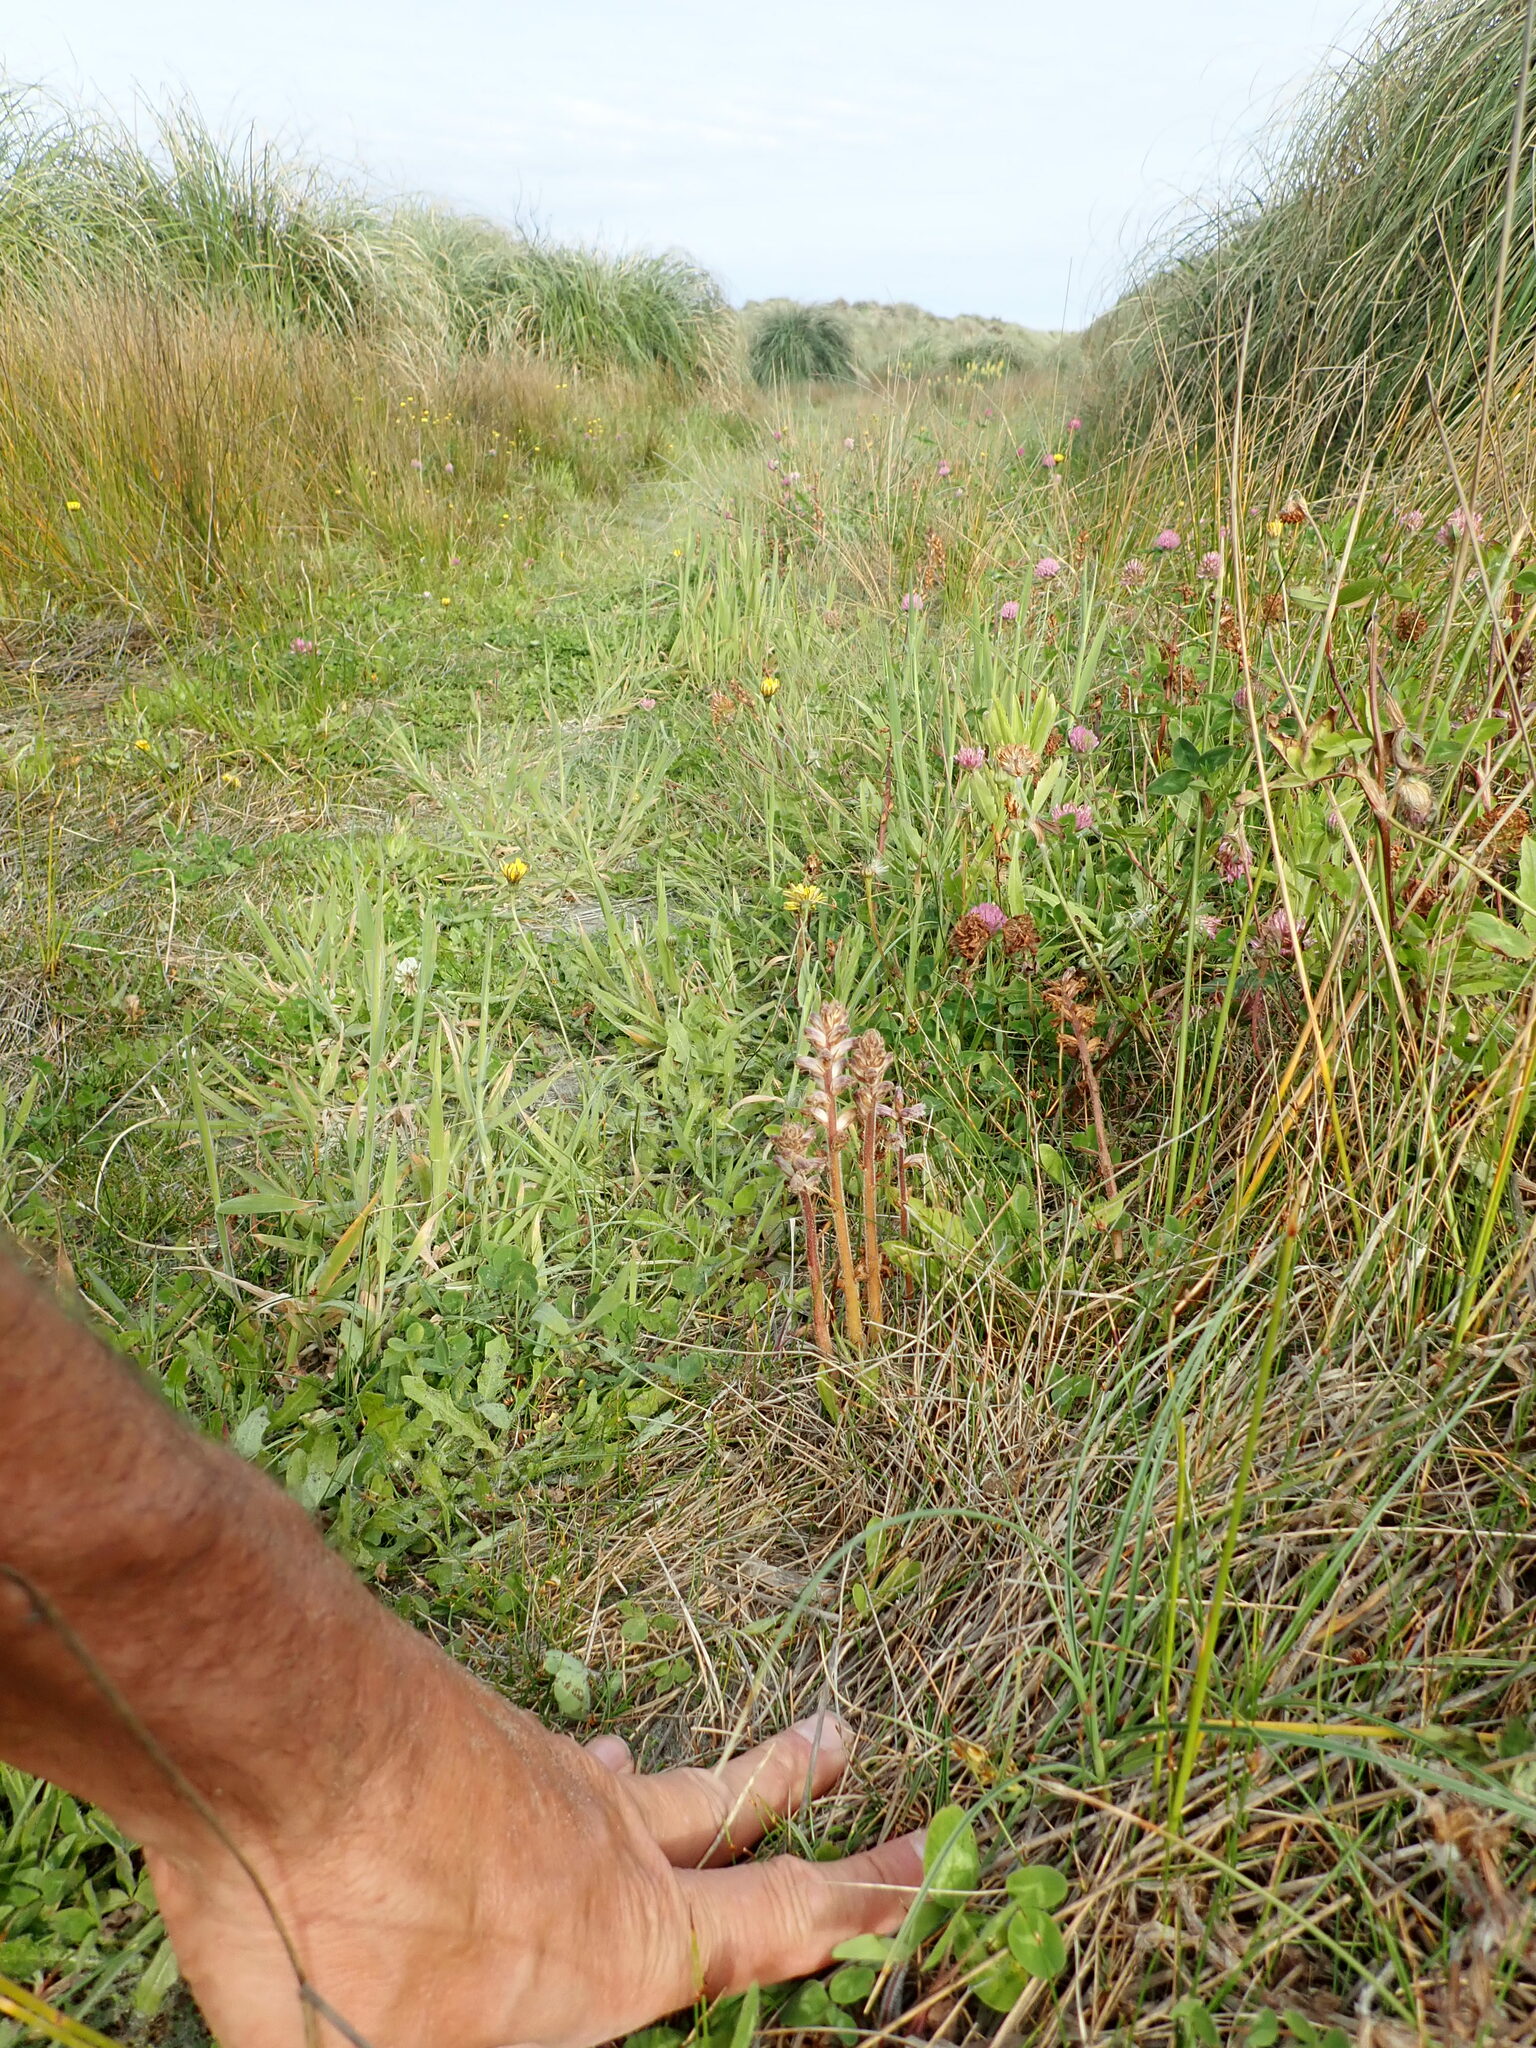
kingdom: Plantae
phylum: Tracheophyta
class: Magnoliopsida
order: Lamiales
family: Orobanchaceae
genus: Orobanche
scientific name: Orobanche minor
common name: Common broomrape
